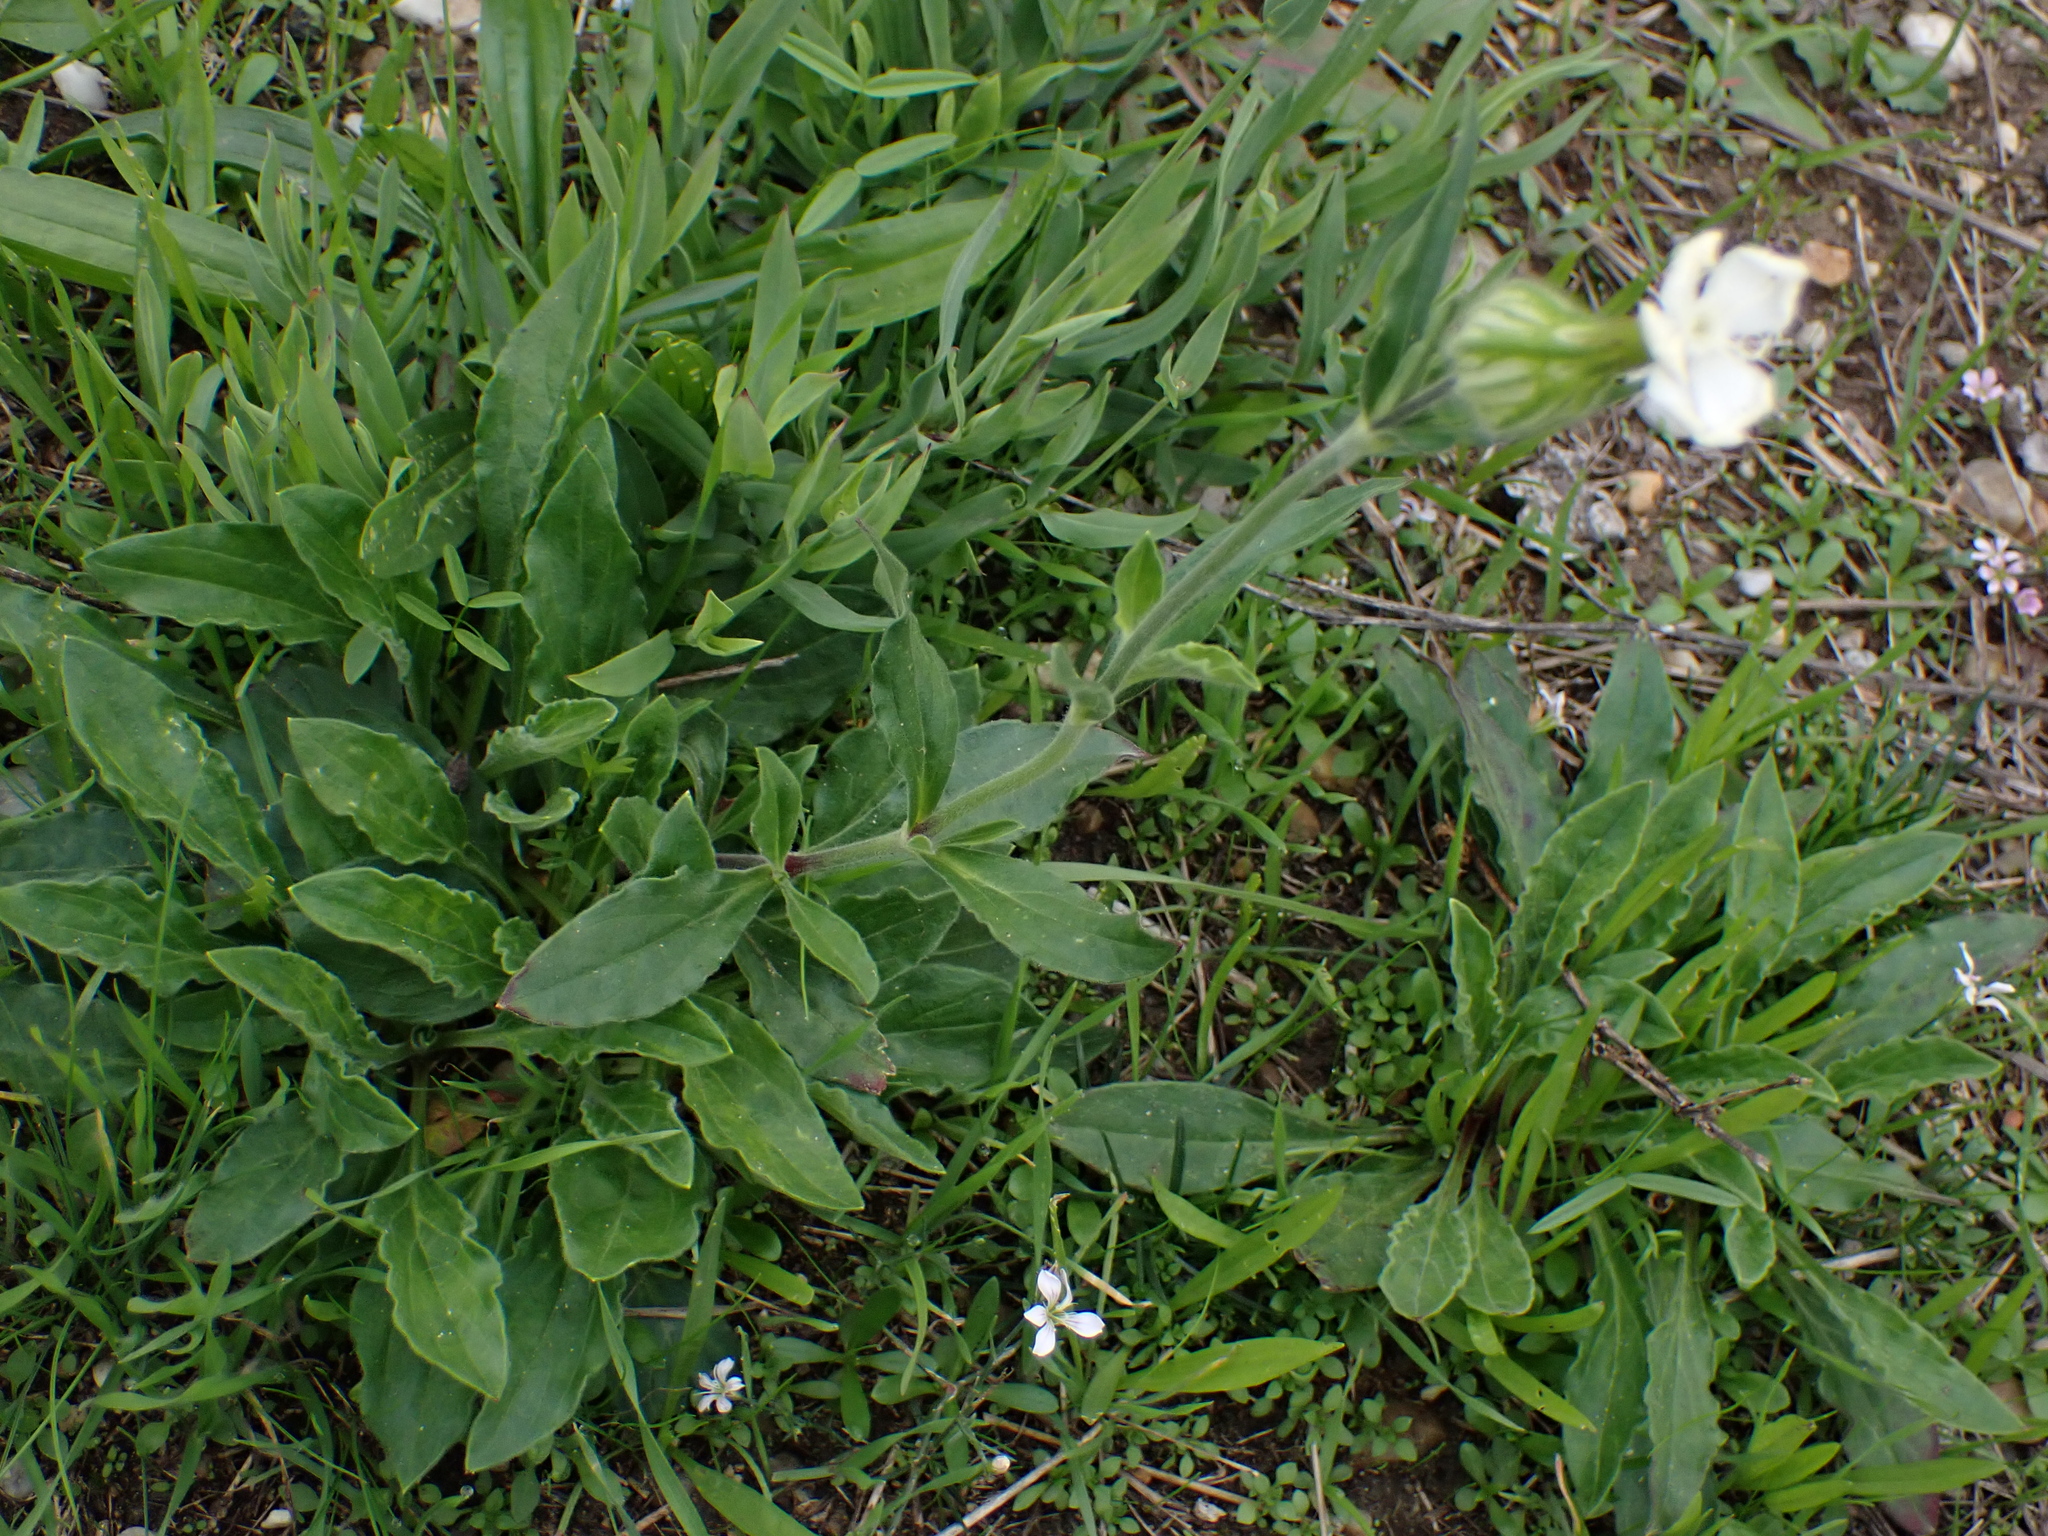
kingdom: Plantae
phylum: Tracheophyta
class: Magnoliopsida
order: Caryophyllales
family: Caryophyllaceae
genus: Silene
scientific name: Silene latifolia
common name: White campion
